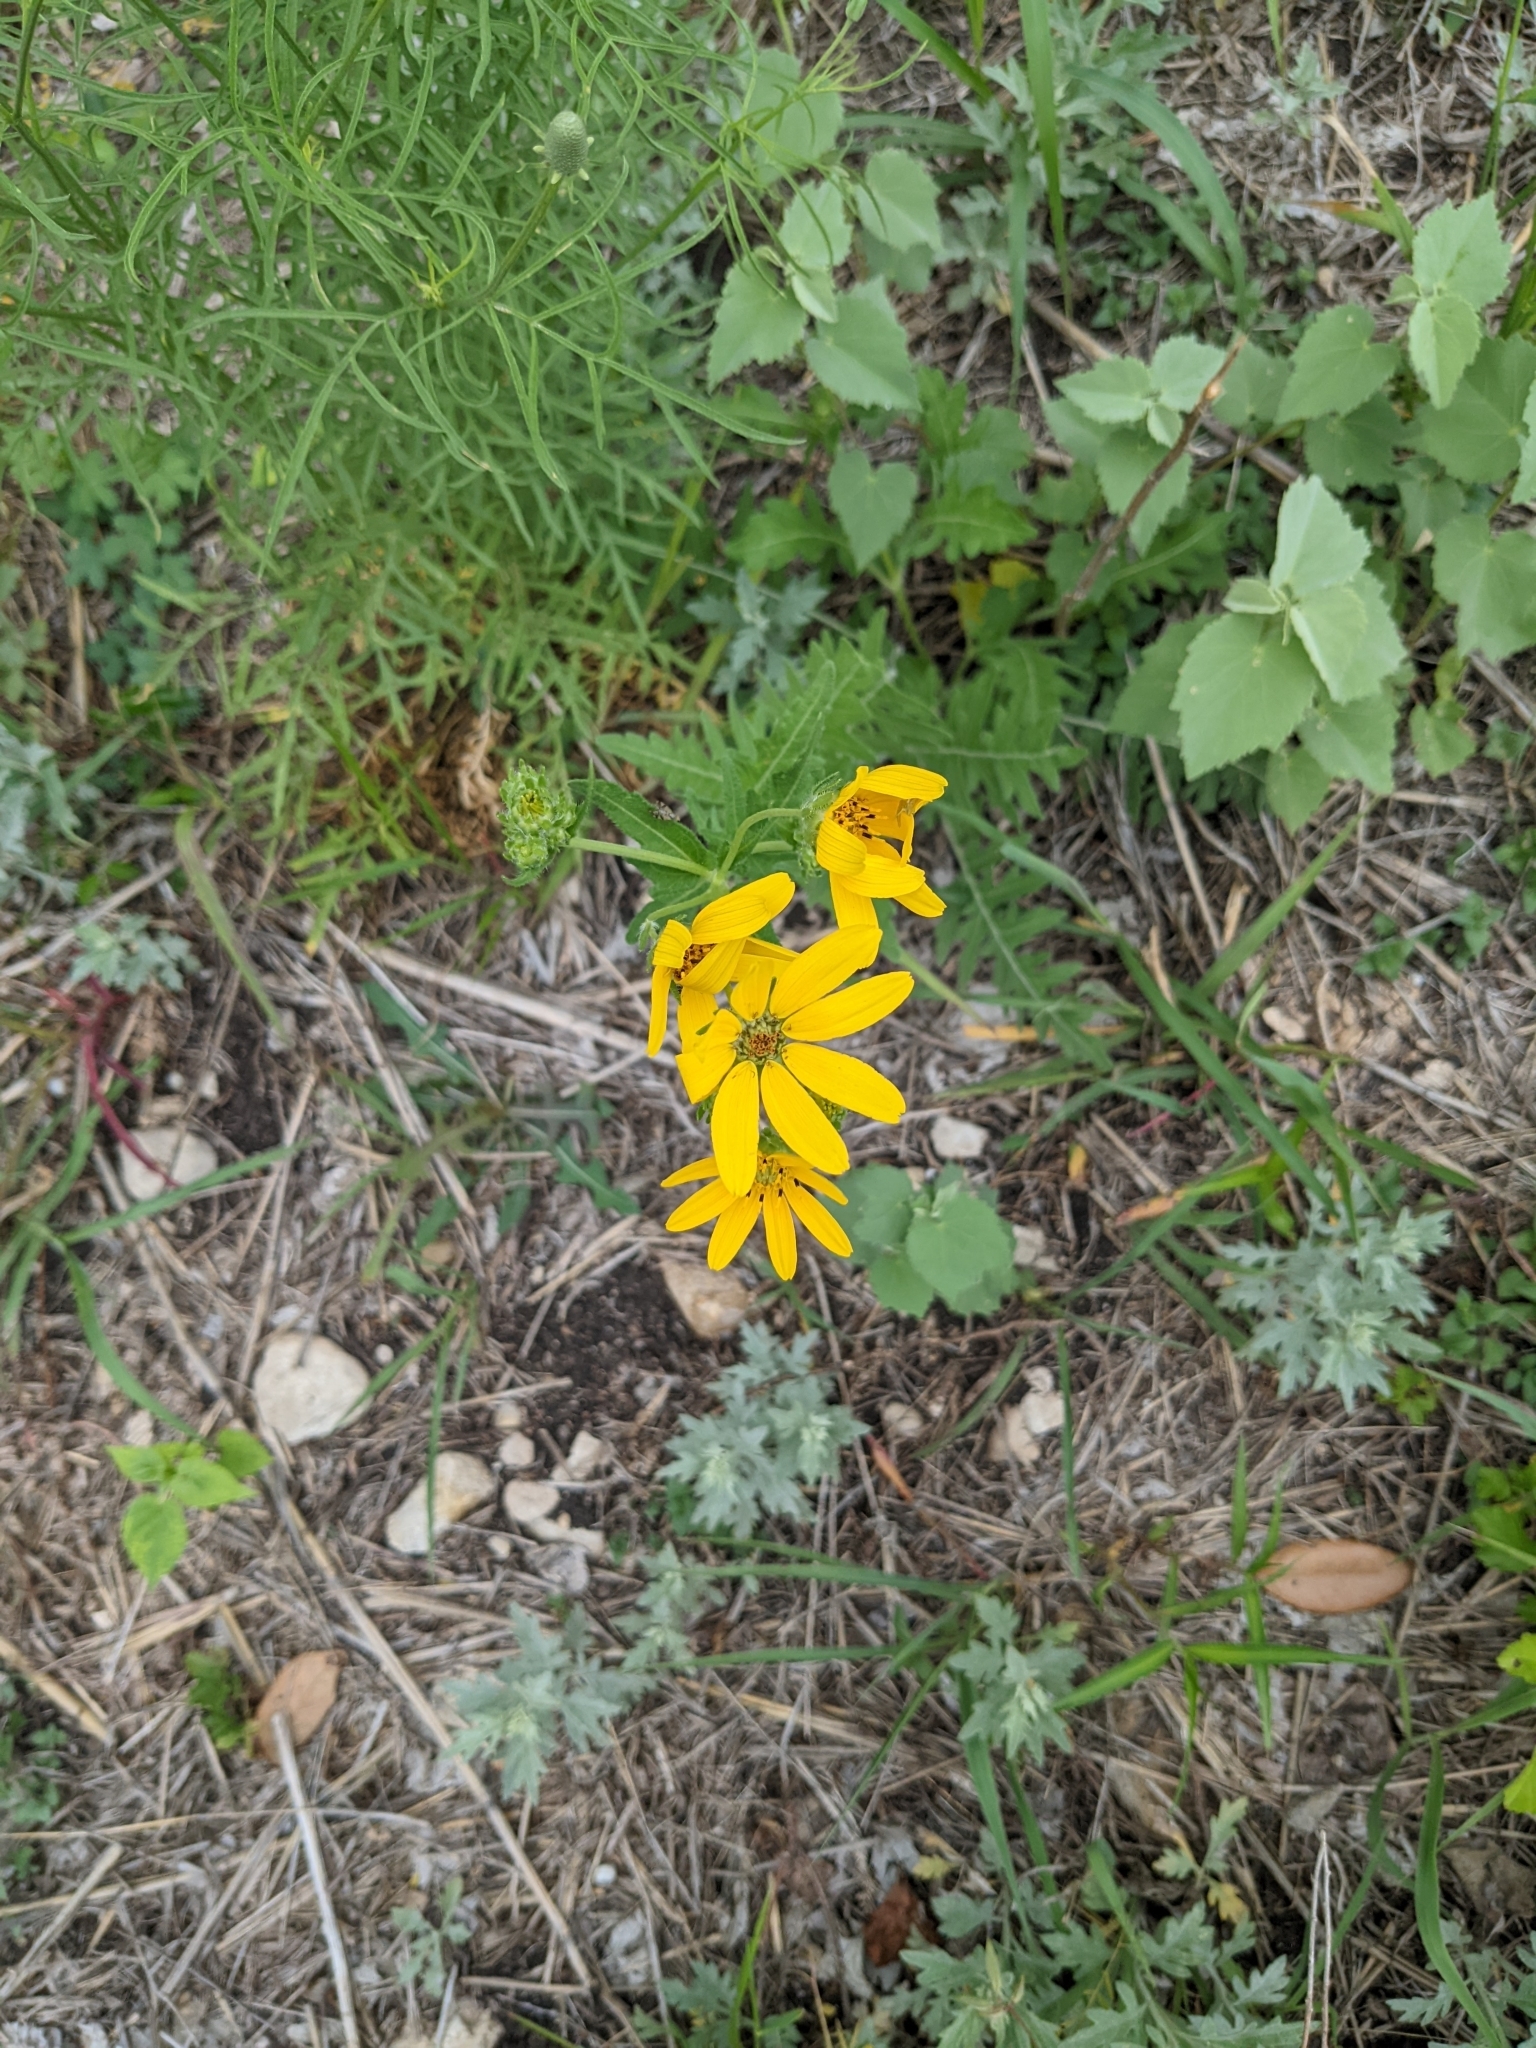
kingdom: Plantae
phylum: Tracheophyta
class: Magnoliopsida
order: Asterales
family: Asteraceae
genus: Engelmannia
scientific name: Engelmannia peristenia
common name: Engelmann's daisy
